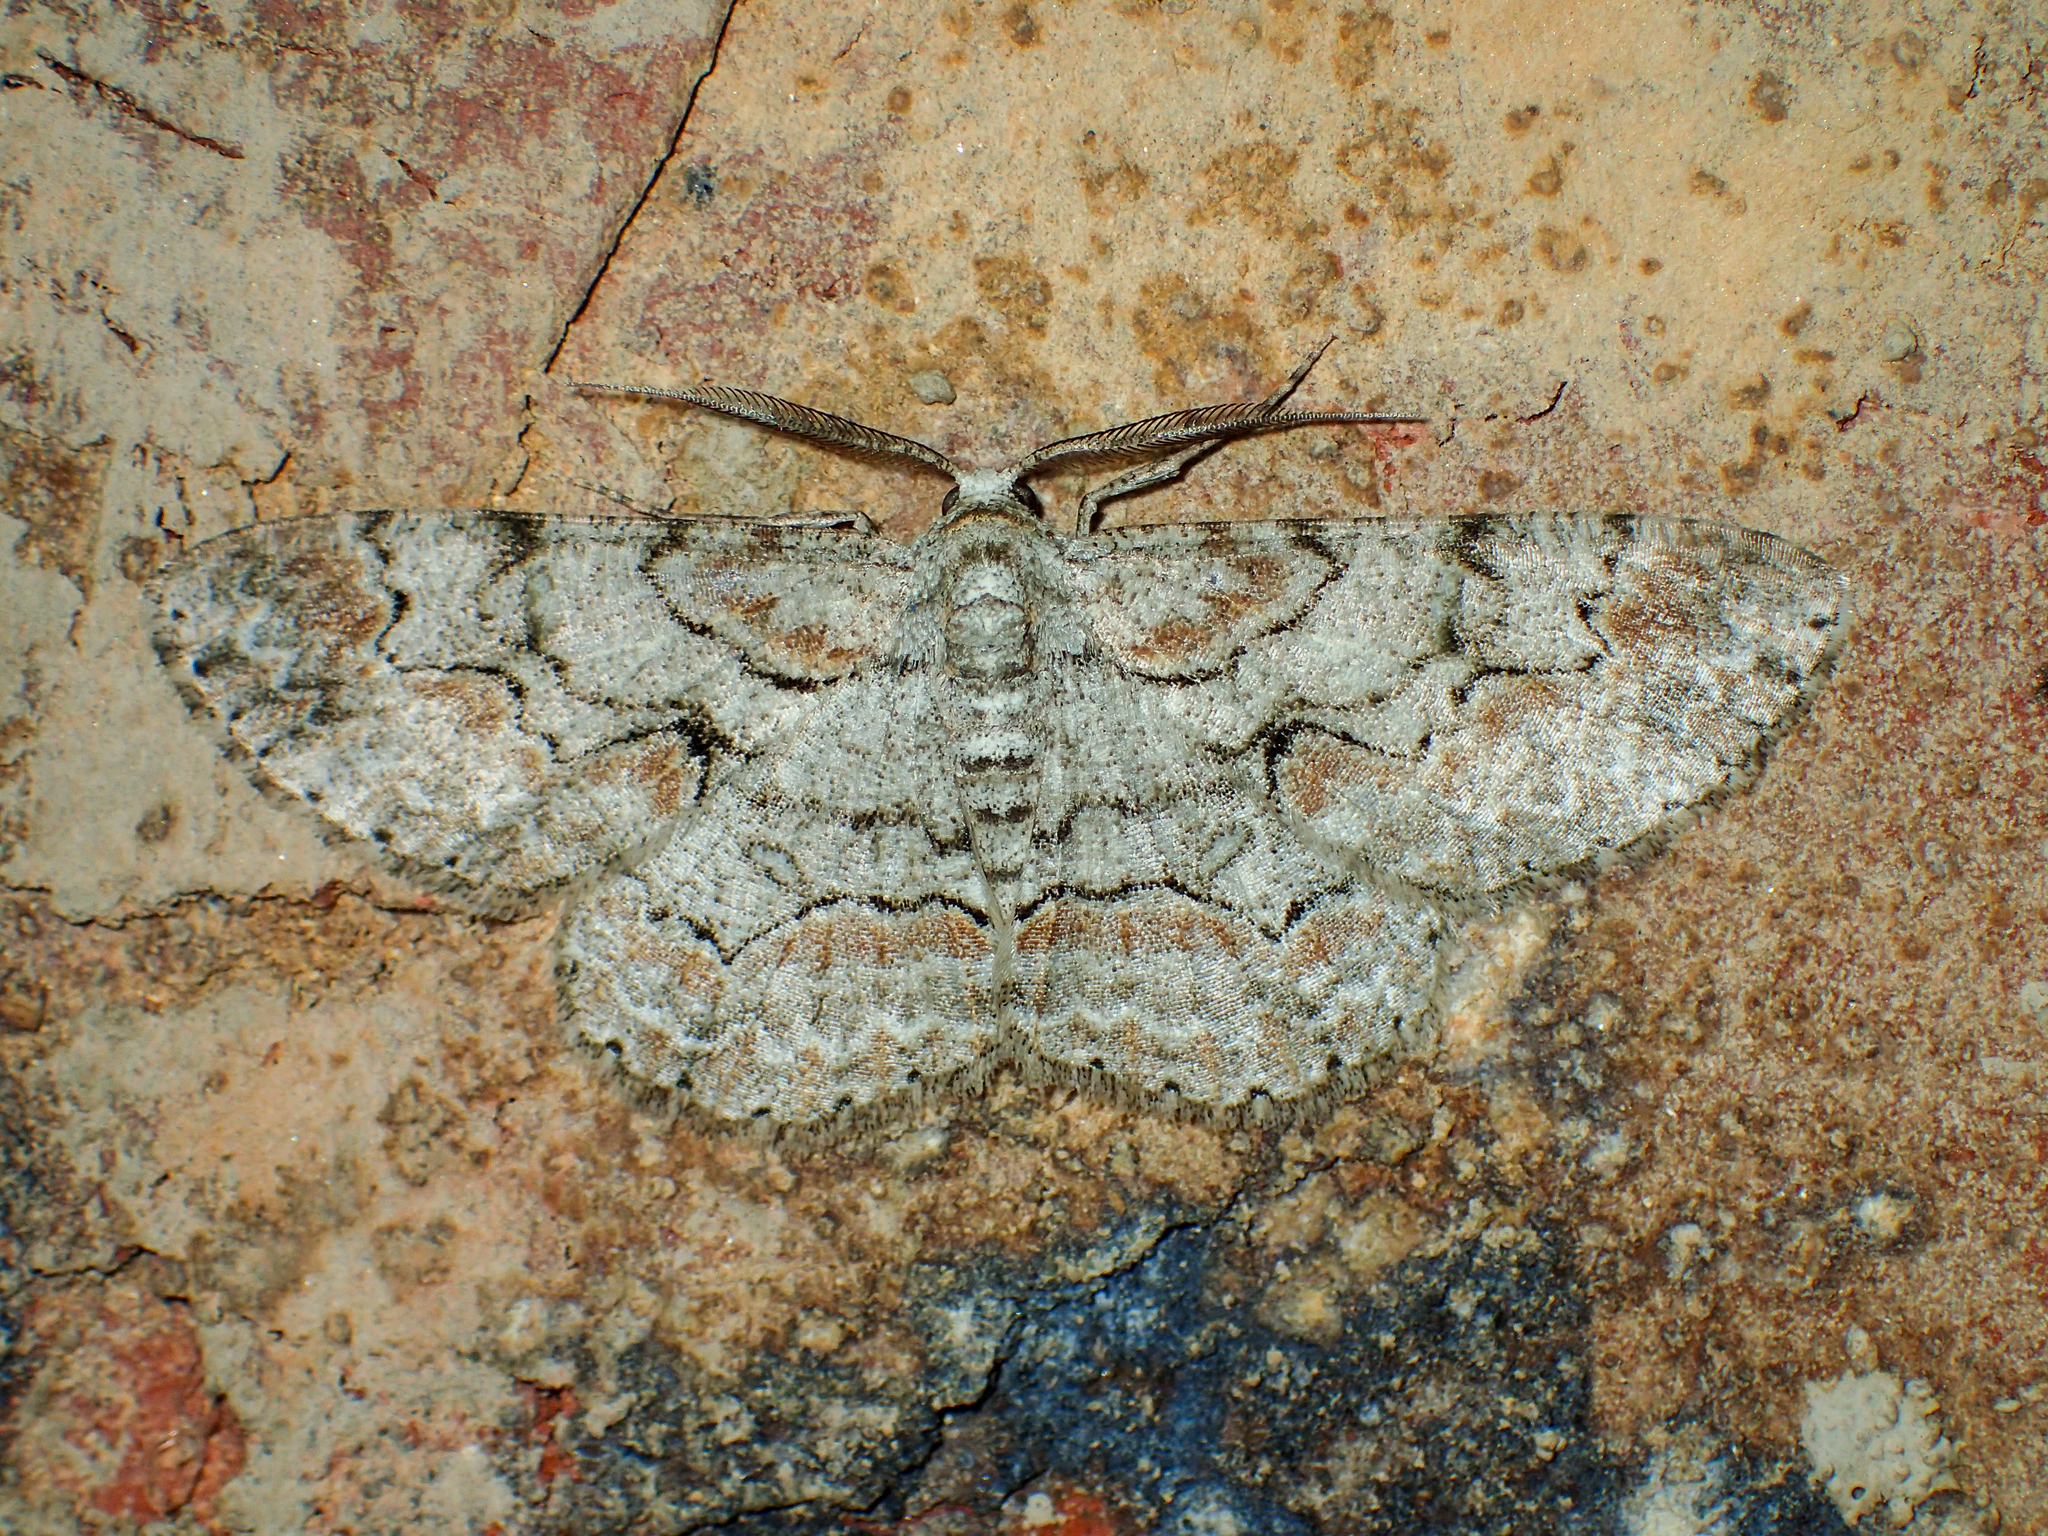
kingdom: Animalia
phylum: Arthropoda
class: Insecta
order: Lepidoptera
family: Geometridae
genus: Iridopsis
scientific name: Iridopsis defectaria
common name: Brown-shaded gray
